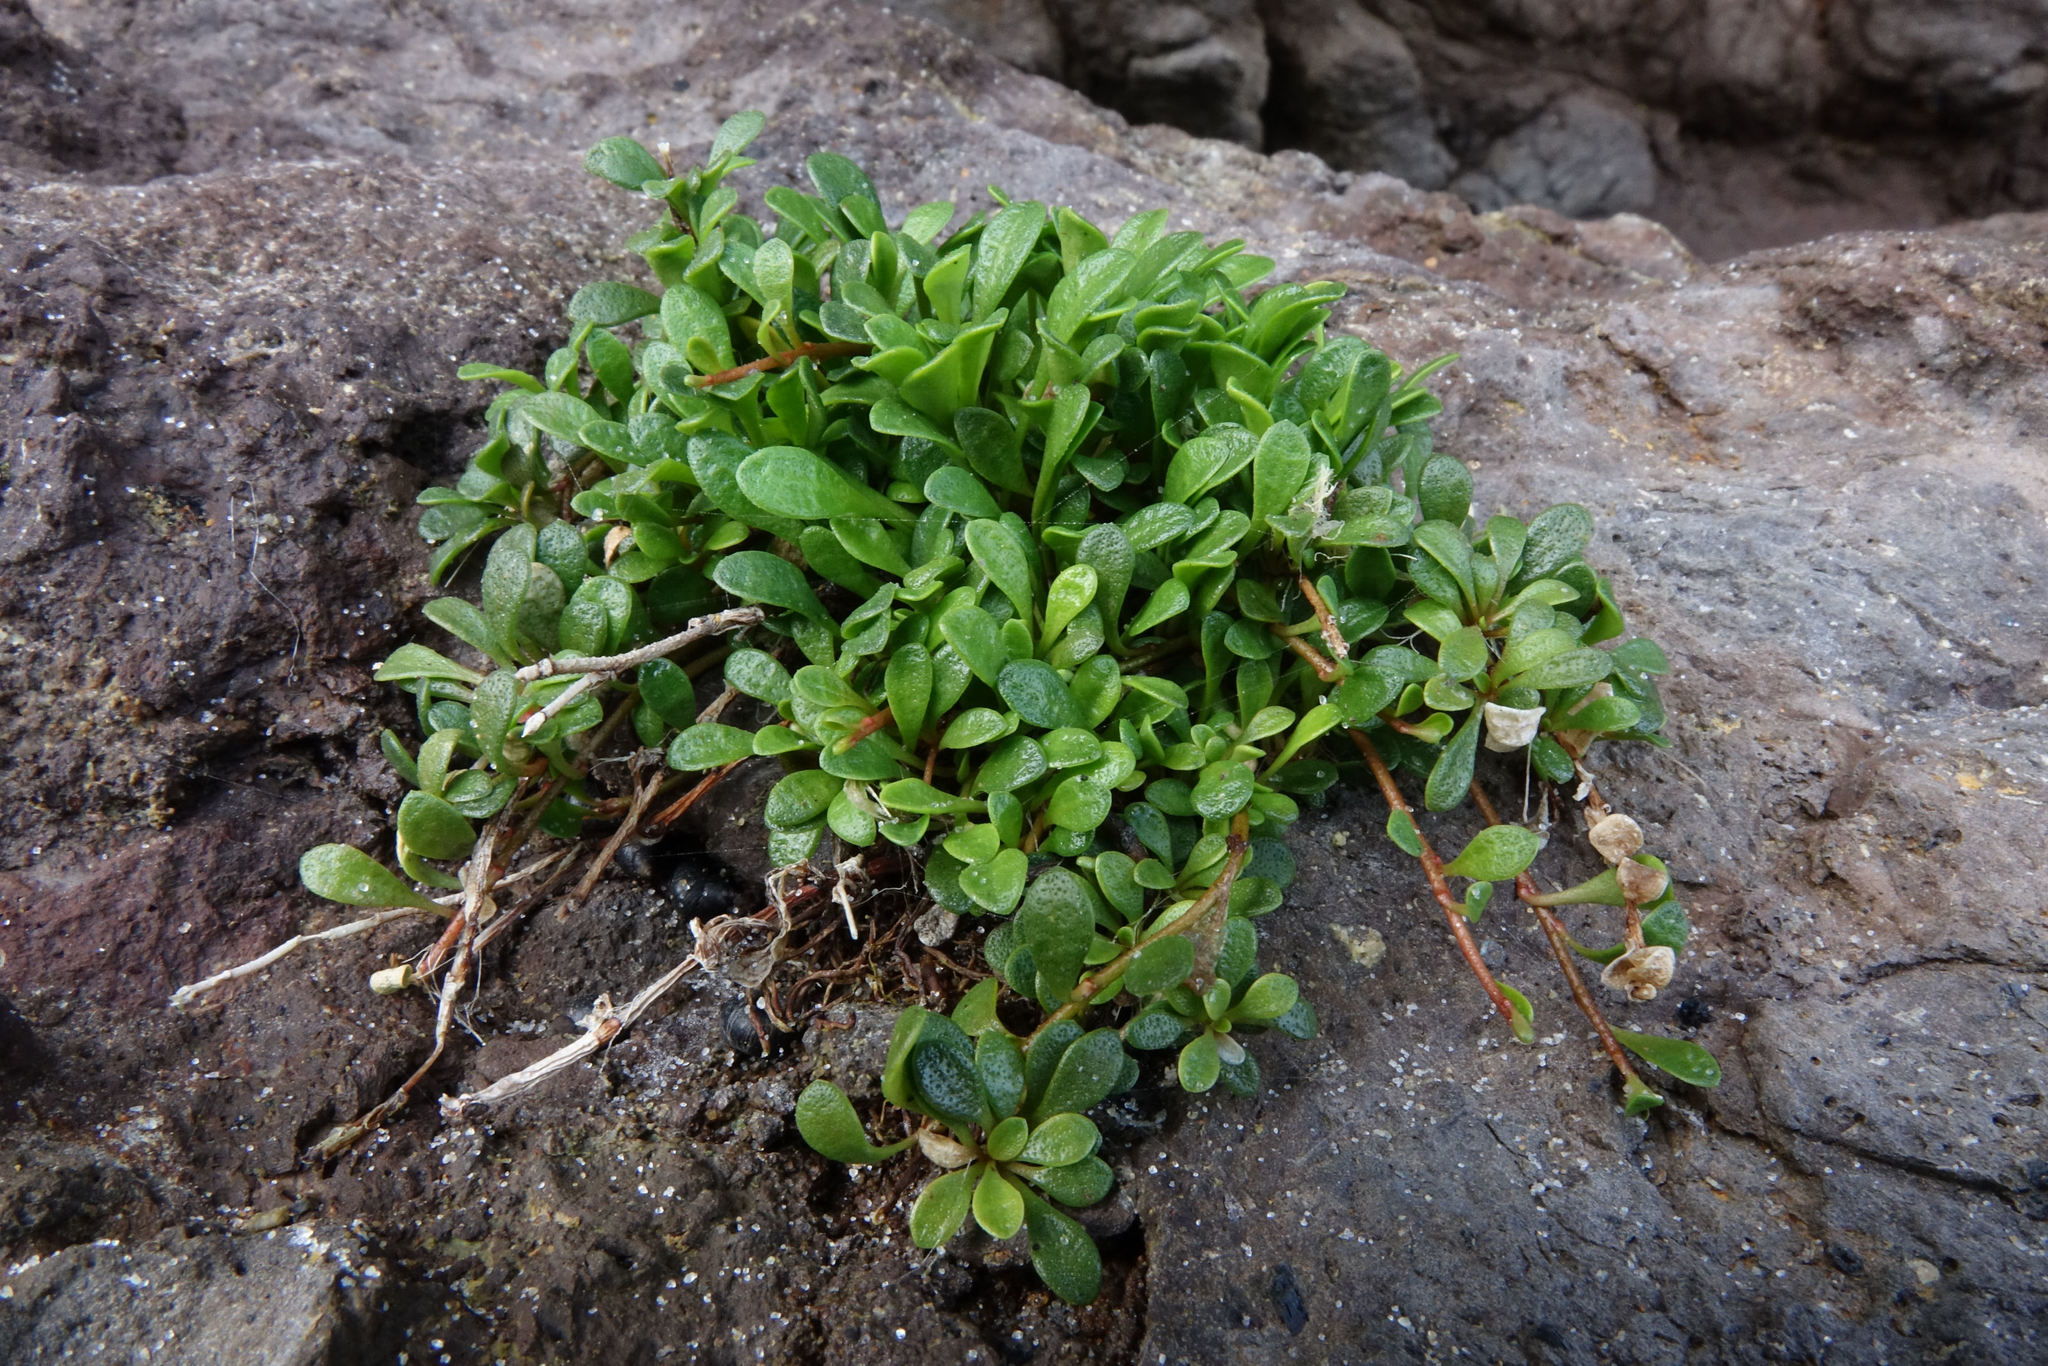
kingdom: Plantae
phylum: Tracheophyta
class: Magnoliopsida
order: Ericales
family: Primulaceae
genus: Samolus
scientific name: Samolus repens
